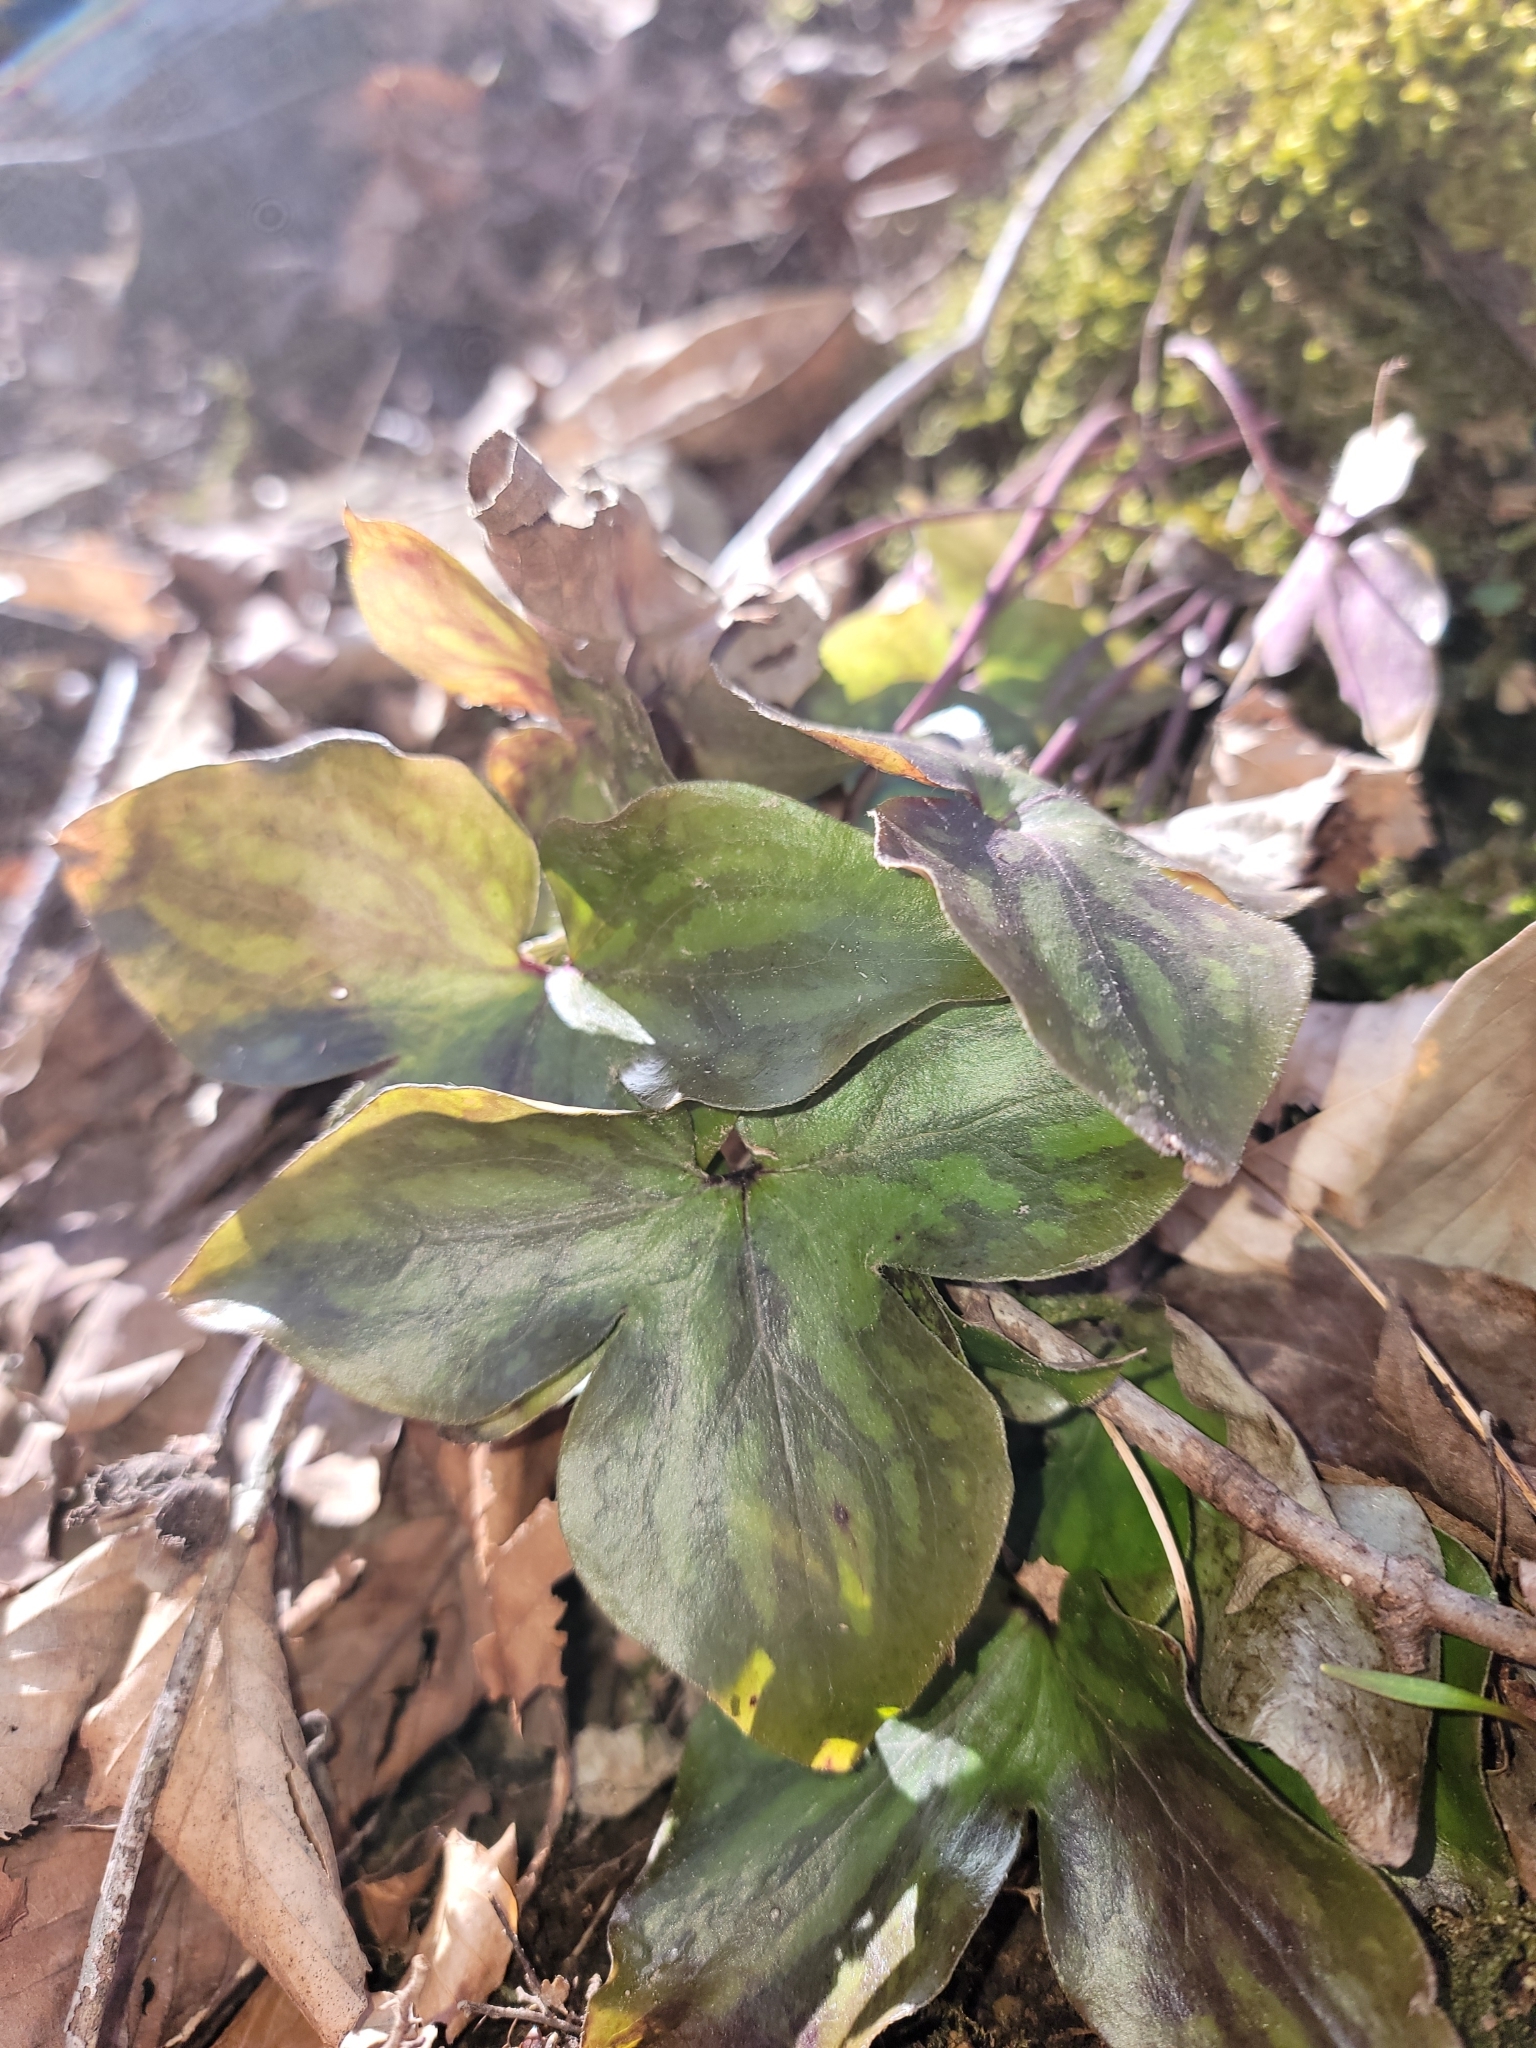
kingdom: Plantae
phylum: Tracheophyta
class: Magnoliopsida
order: Ranunculales
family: Ranunculaceae
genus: Hepatica
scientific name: Hepatica acutiloba
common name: Sharp-lobed hepatica
